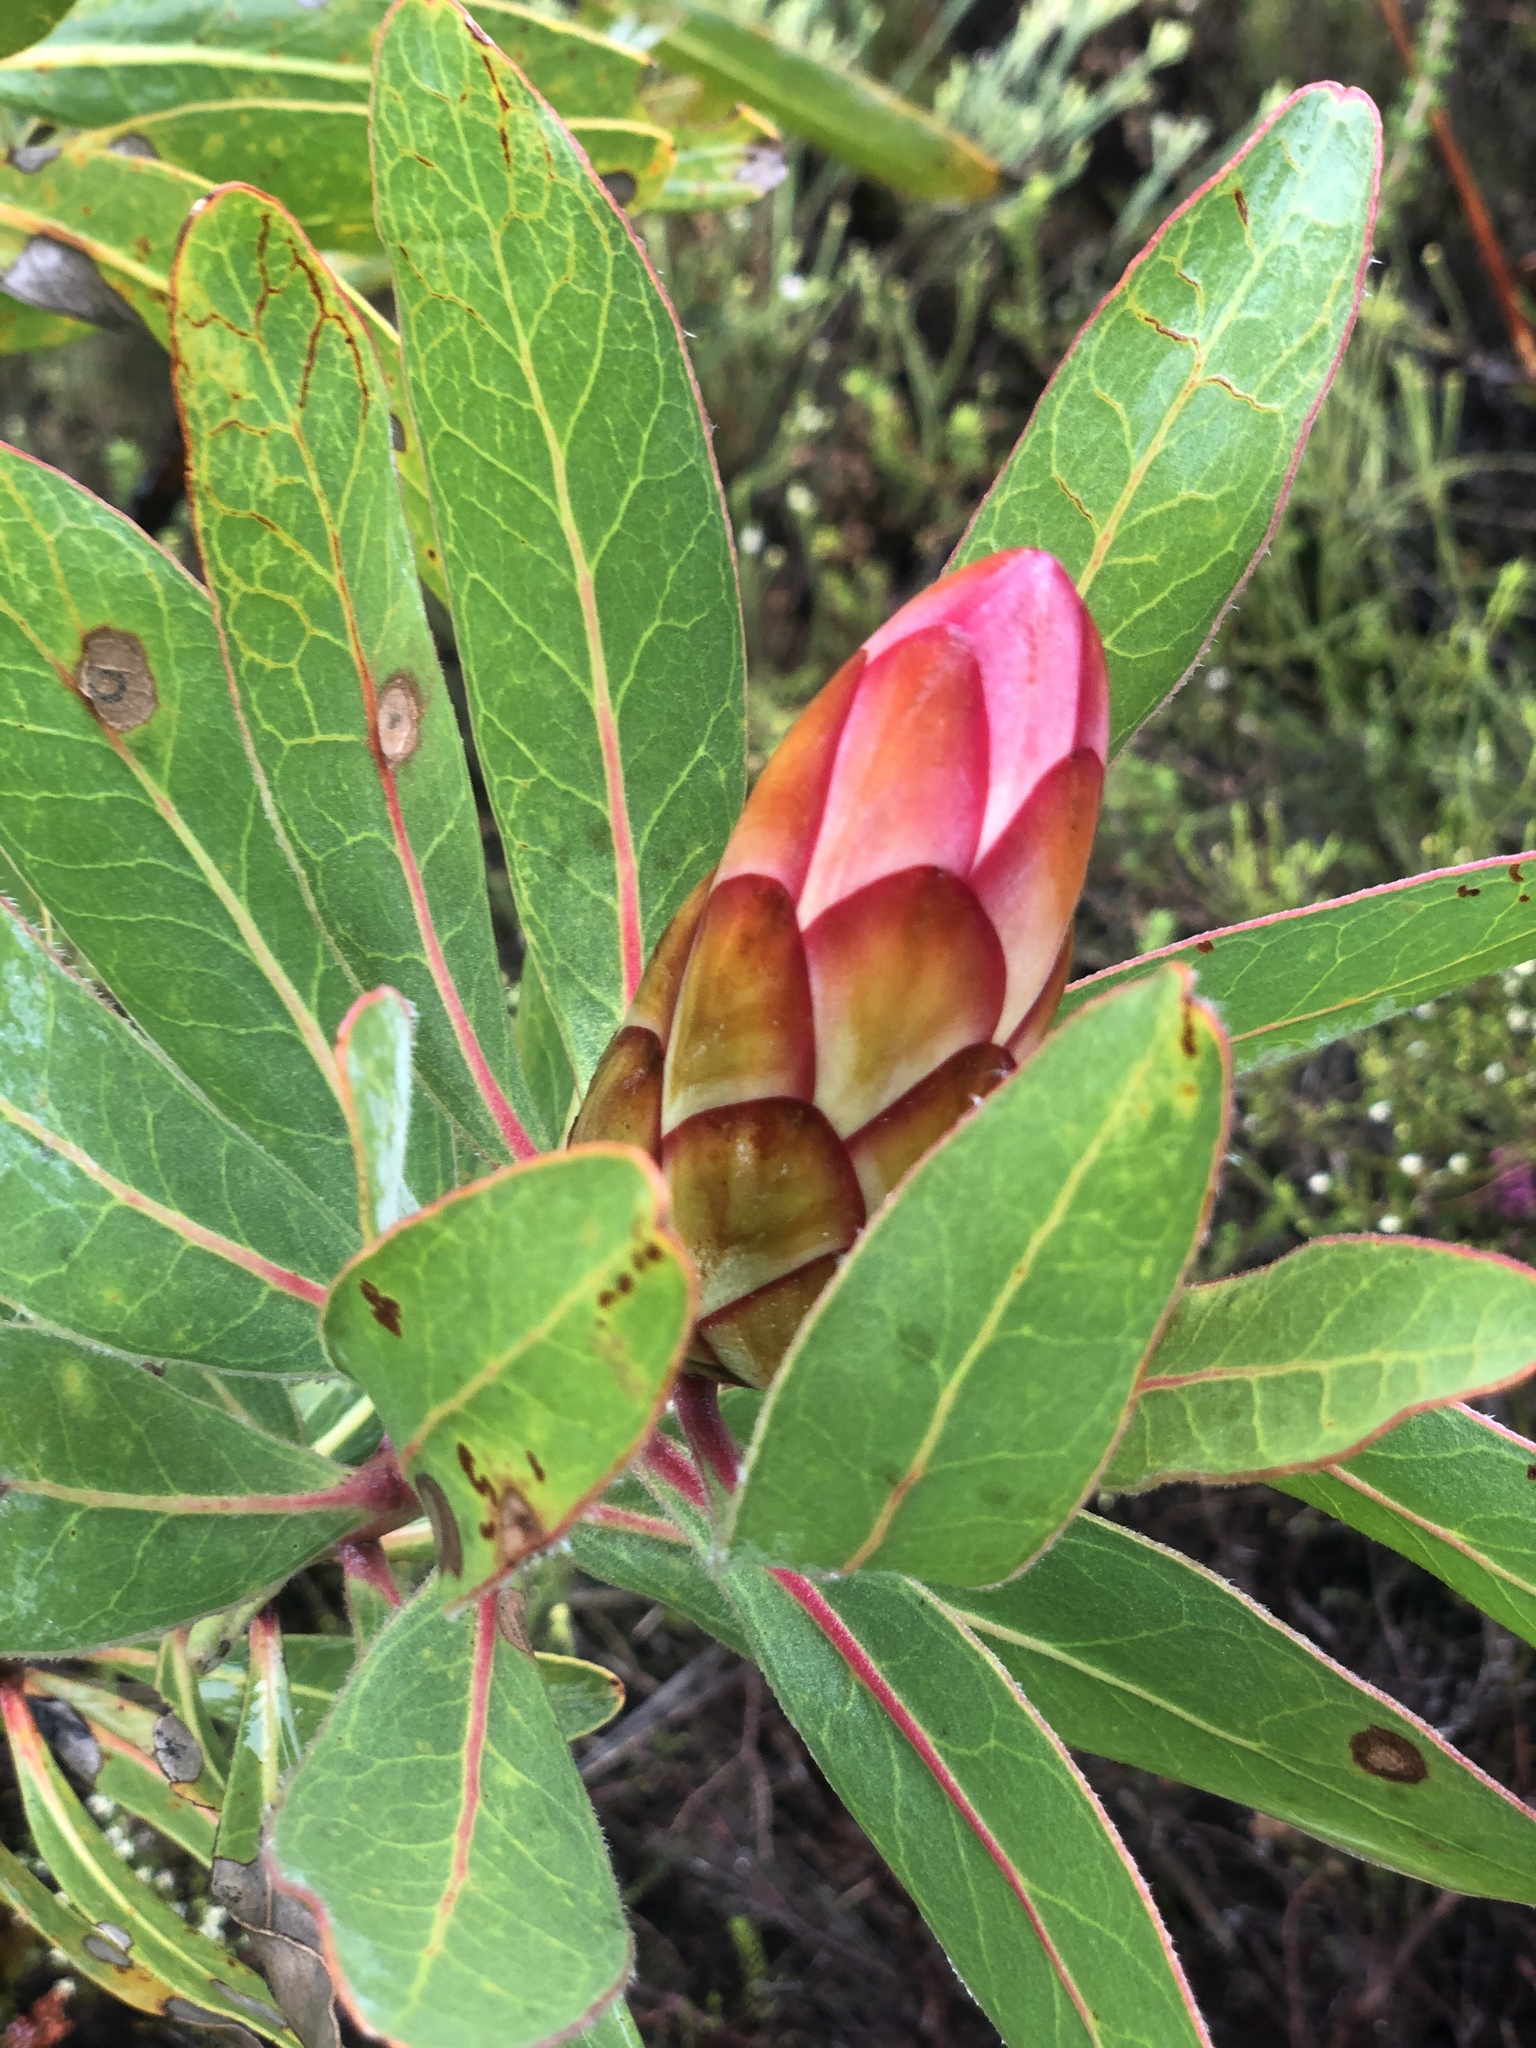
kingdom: Plantae
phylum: Tracheophyta
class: Magnoliopsida
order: Proteales
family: Proteaceae
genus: Protea
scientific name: Protea susannae
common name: Foetid-leaf sugarbush
